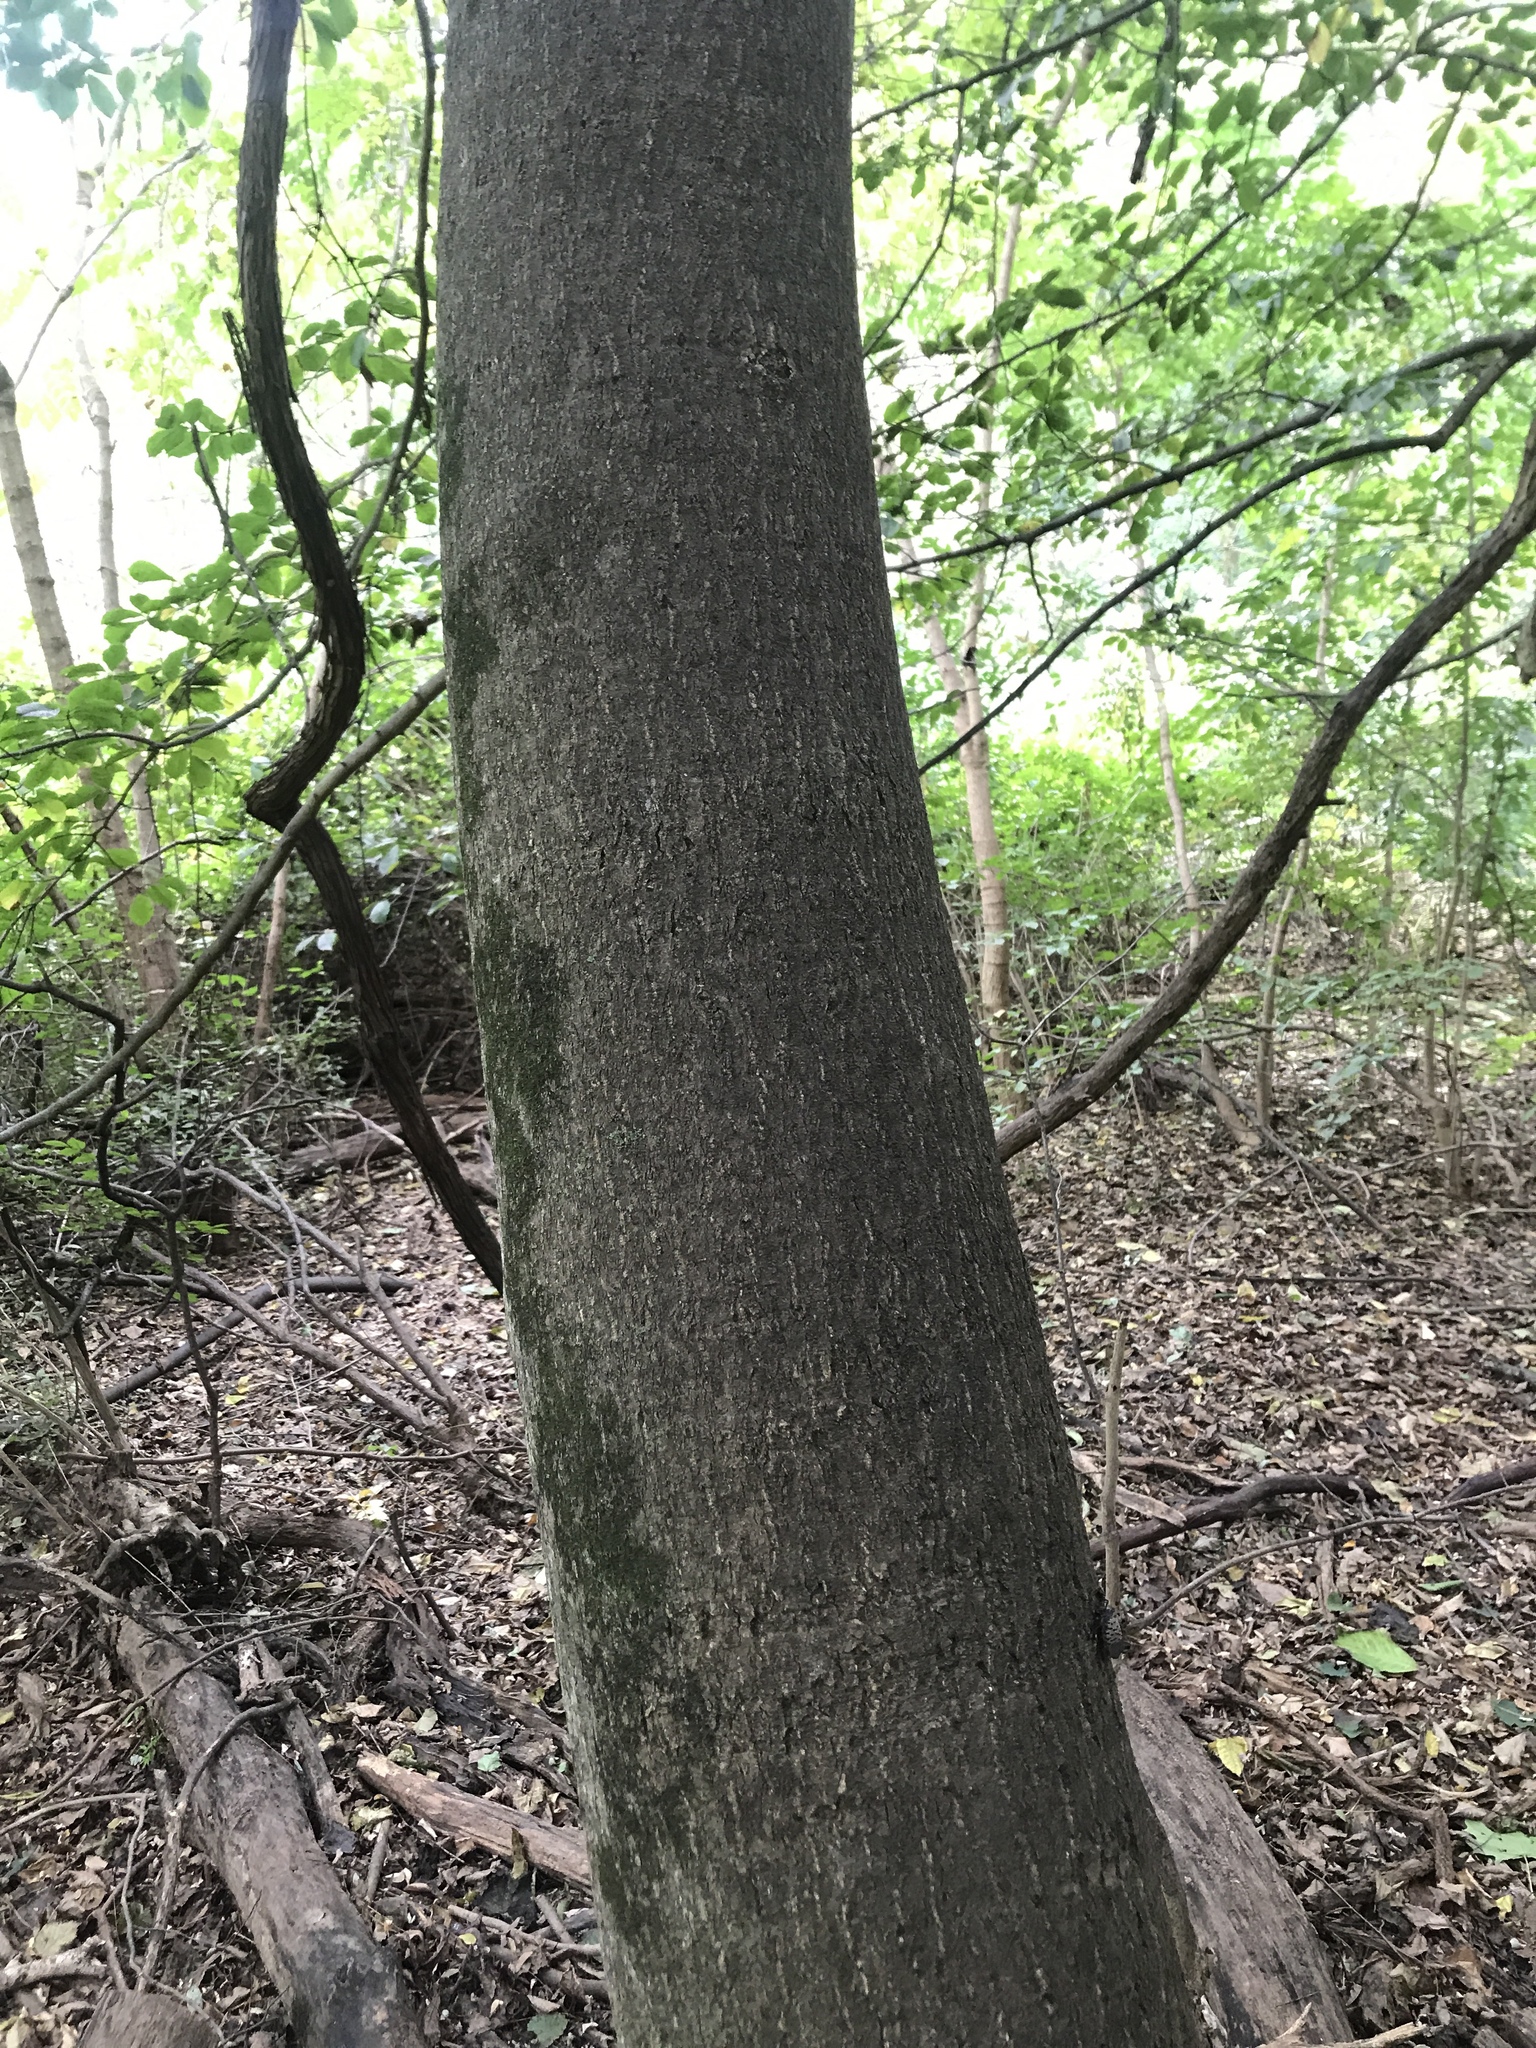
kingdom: Plantae
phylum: Tracheophyta
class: Magnoliopsida
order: Sapindales
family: Simaroubaceae
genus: Ailanthus
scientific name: Ailanthus altissima
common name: Tree-of-heaven
